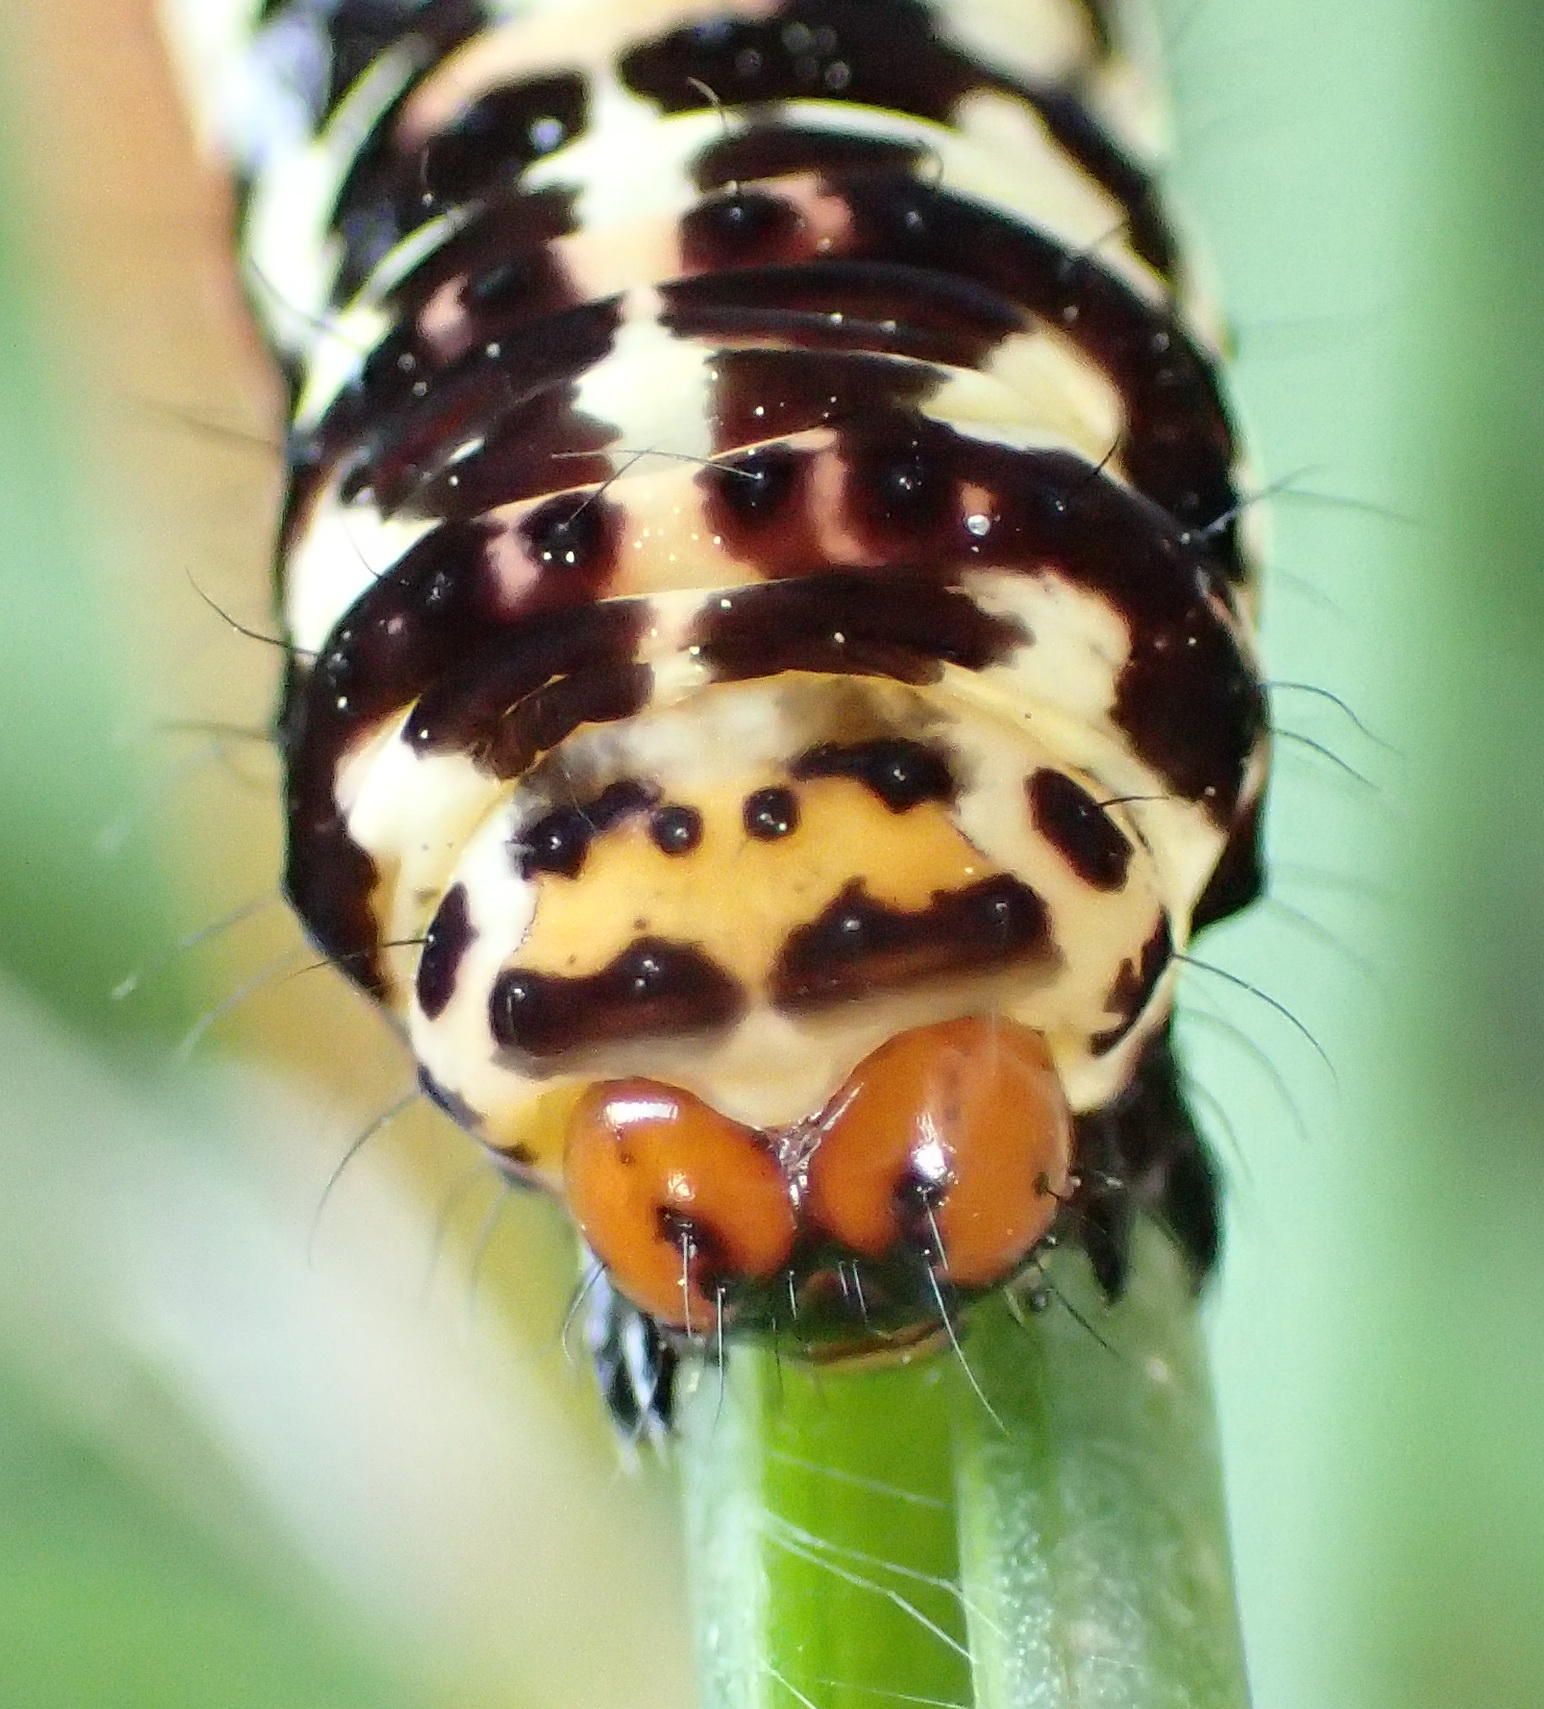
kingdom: Animalia
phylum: Arthropoda
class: Insecta
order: Lepidoptera
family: Noctuidae
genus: Diaphone
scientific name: Diaphone eumela
